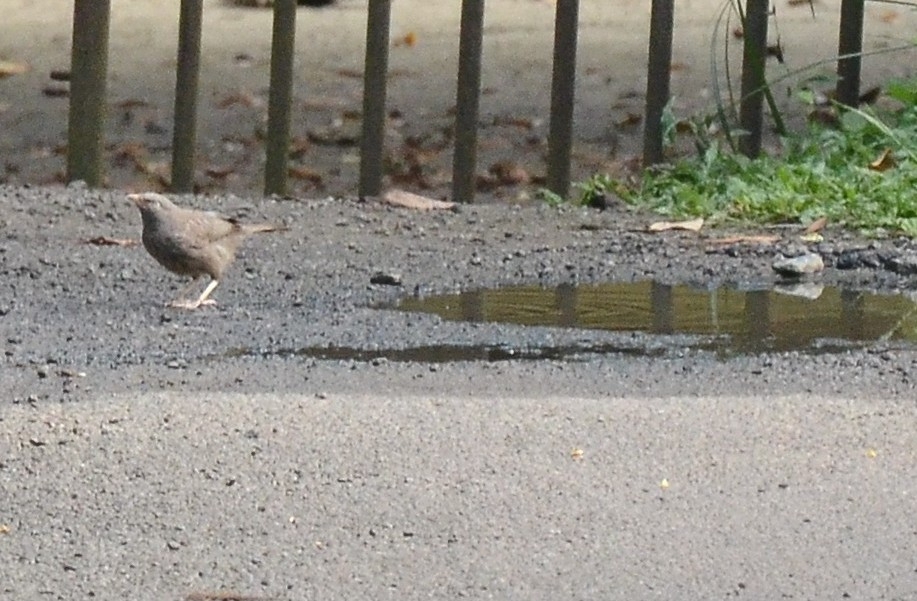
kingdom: Animalia
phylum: Chordata
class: Aves
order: Passeriformes
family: Leiothrichidae
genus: Turdoides
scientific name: Turdoides striata
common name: Jungle babbler
